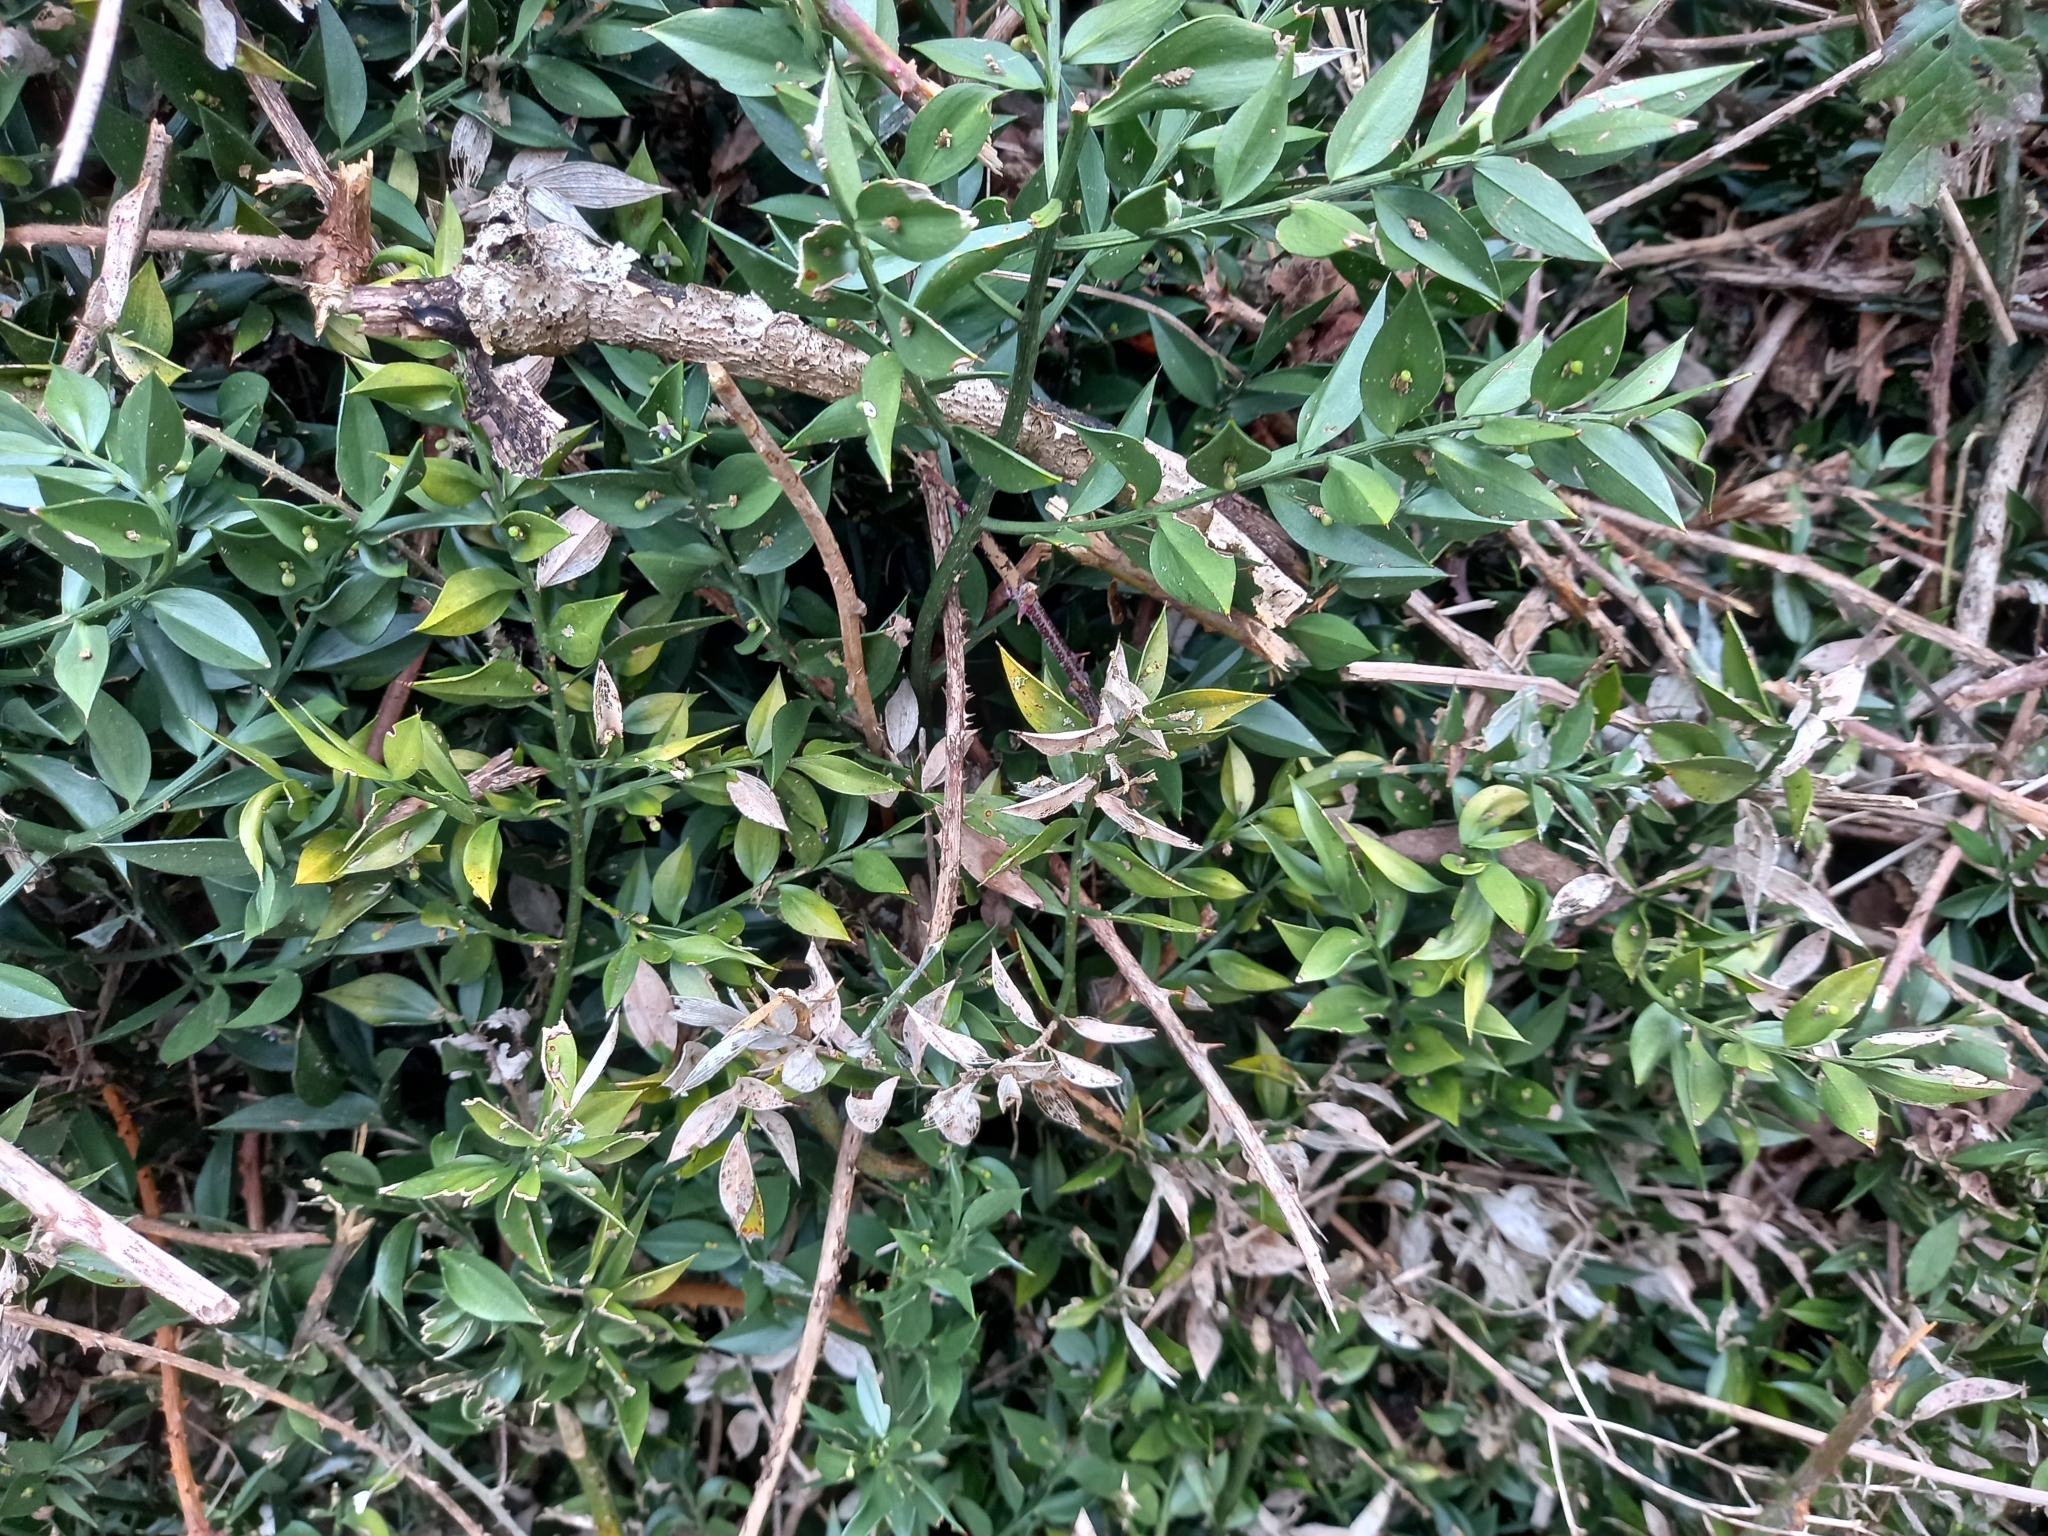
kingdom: Plantae
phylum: Tracheophyta
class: Liliopsida
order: Asparagales
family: Asparagaceae
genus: Ruscus
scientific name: Ruscus aculeatus
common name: Butcher's-broom
